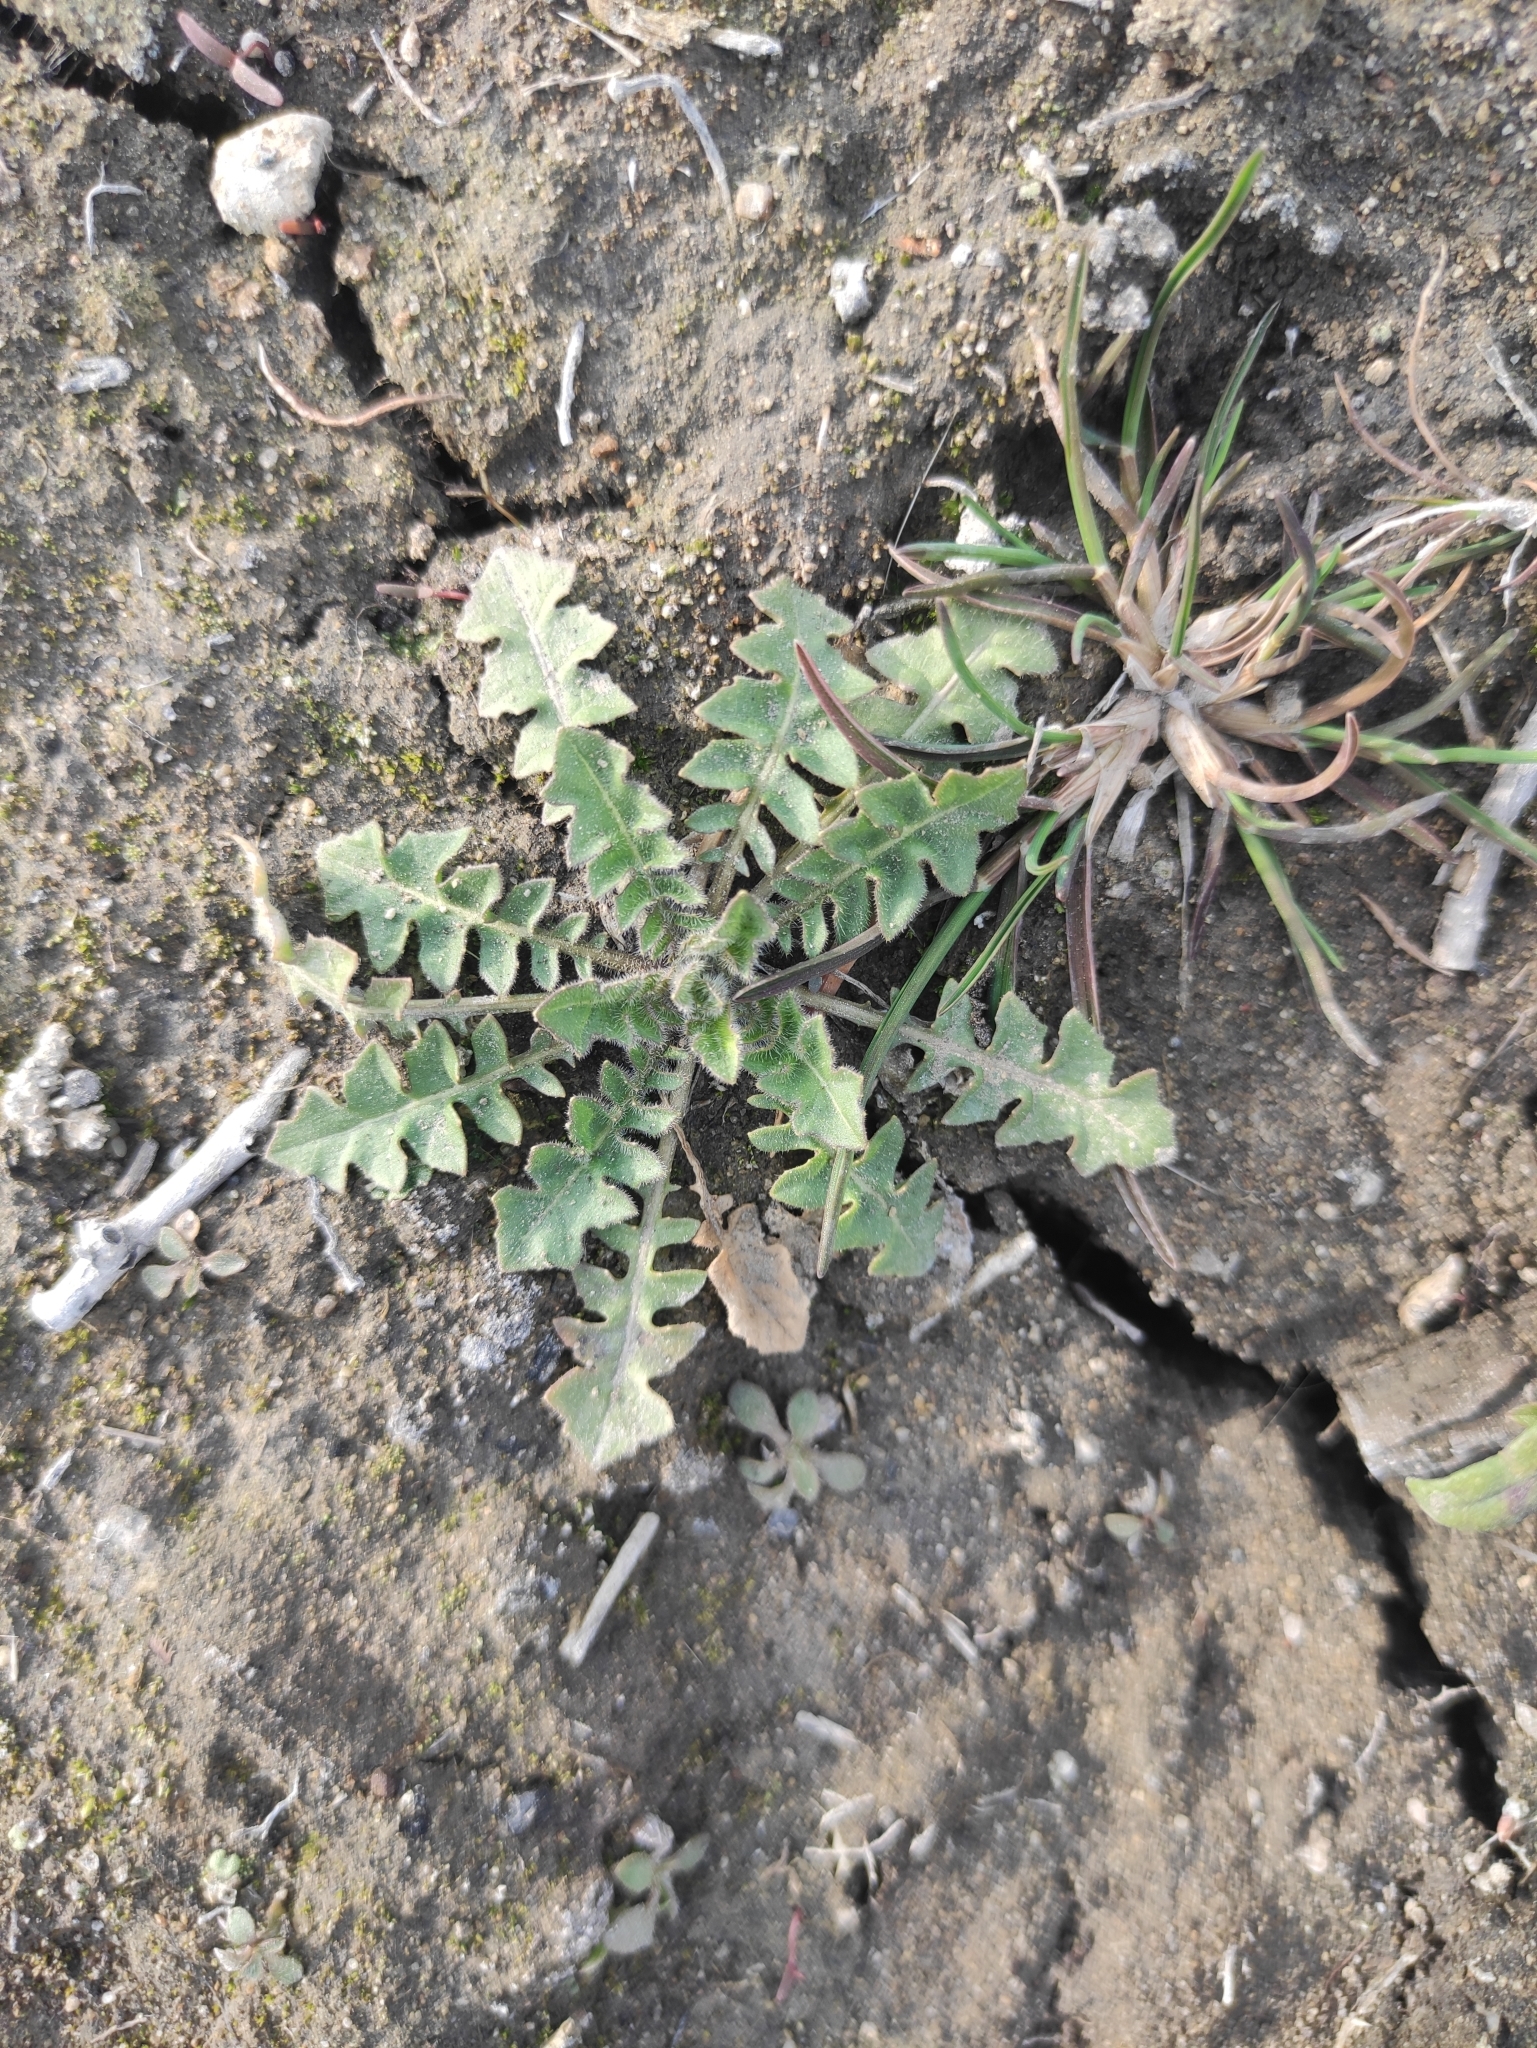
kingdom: Plantae
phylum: Tracheophyta
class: Magnoliopsida
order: Brassicales
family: Brassicaceae
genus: Sisymbrium
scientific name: Sisymbrium loeselii
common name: False london-rocket
